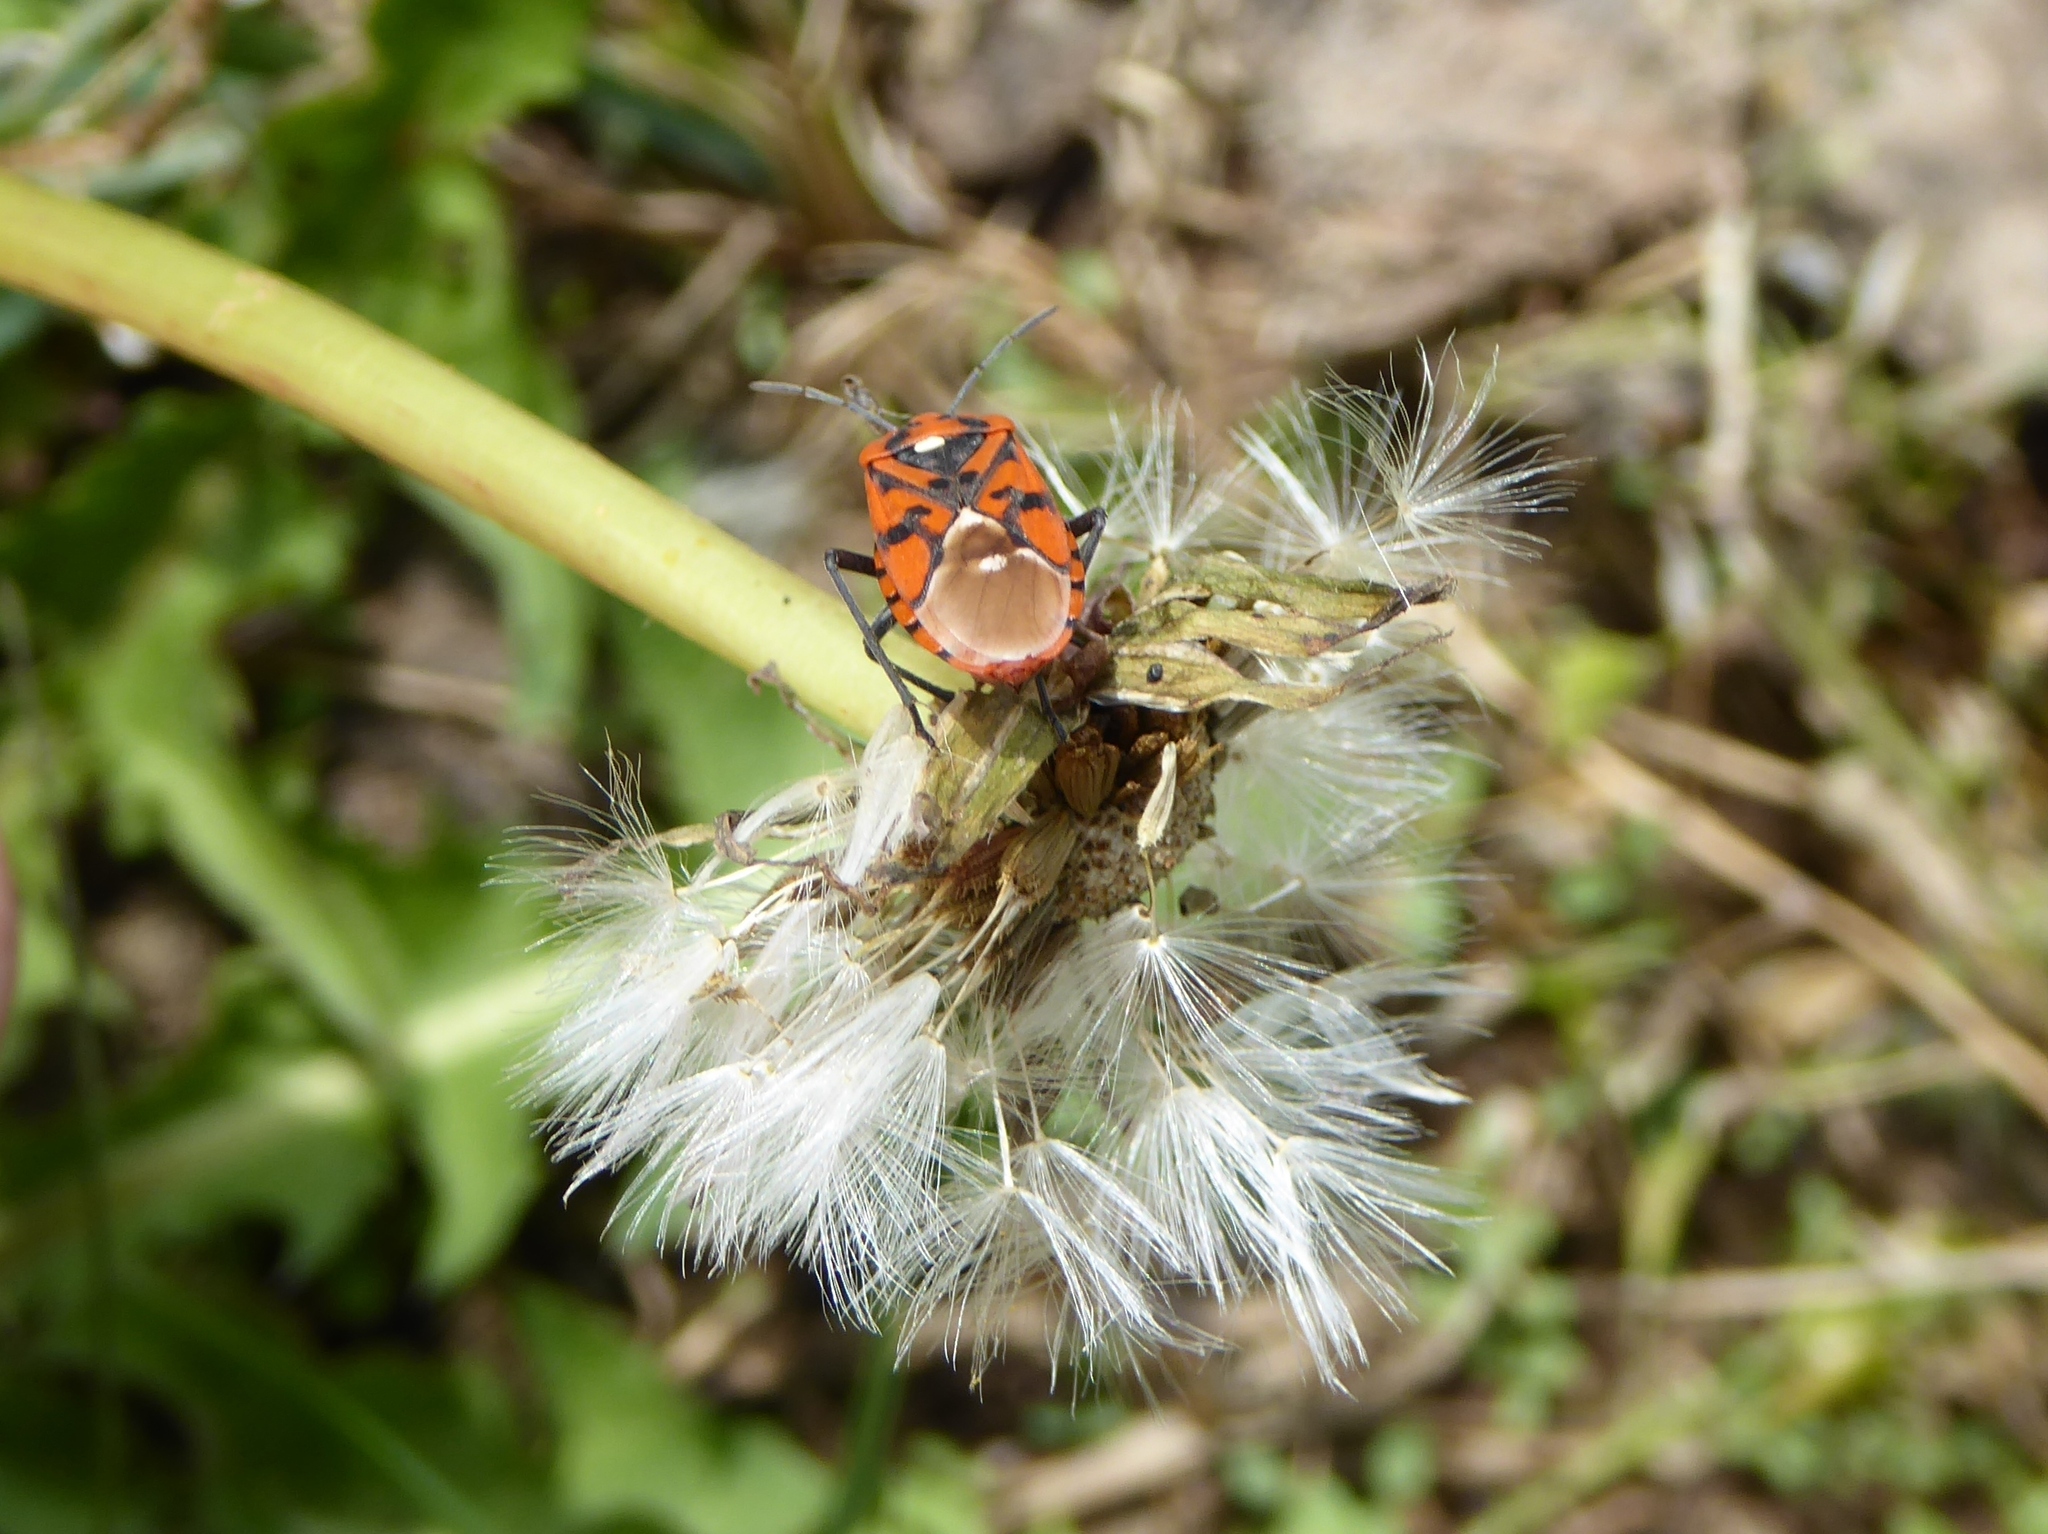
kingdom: Animalia
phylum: Arthropoda
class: Insecta
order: Hemiptera
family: Lygaeidae
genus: Spilostethus
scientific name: Spilostethus pandurus
